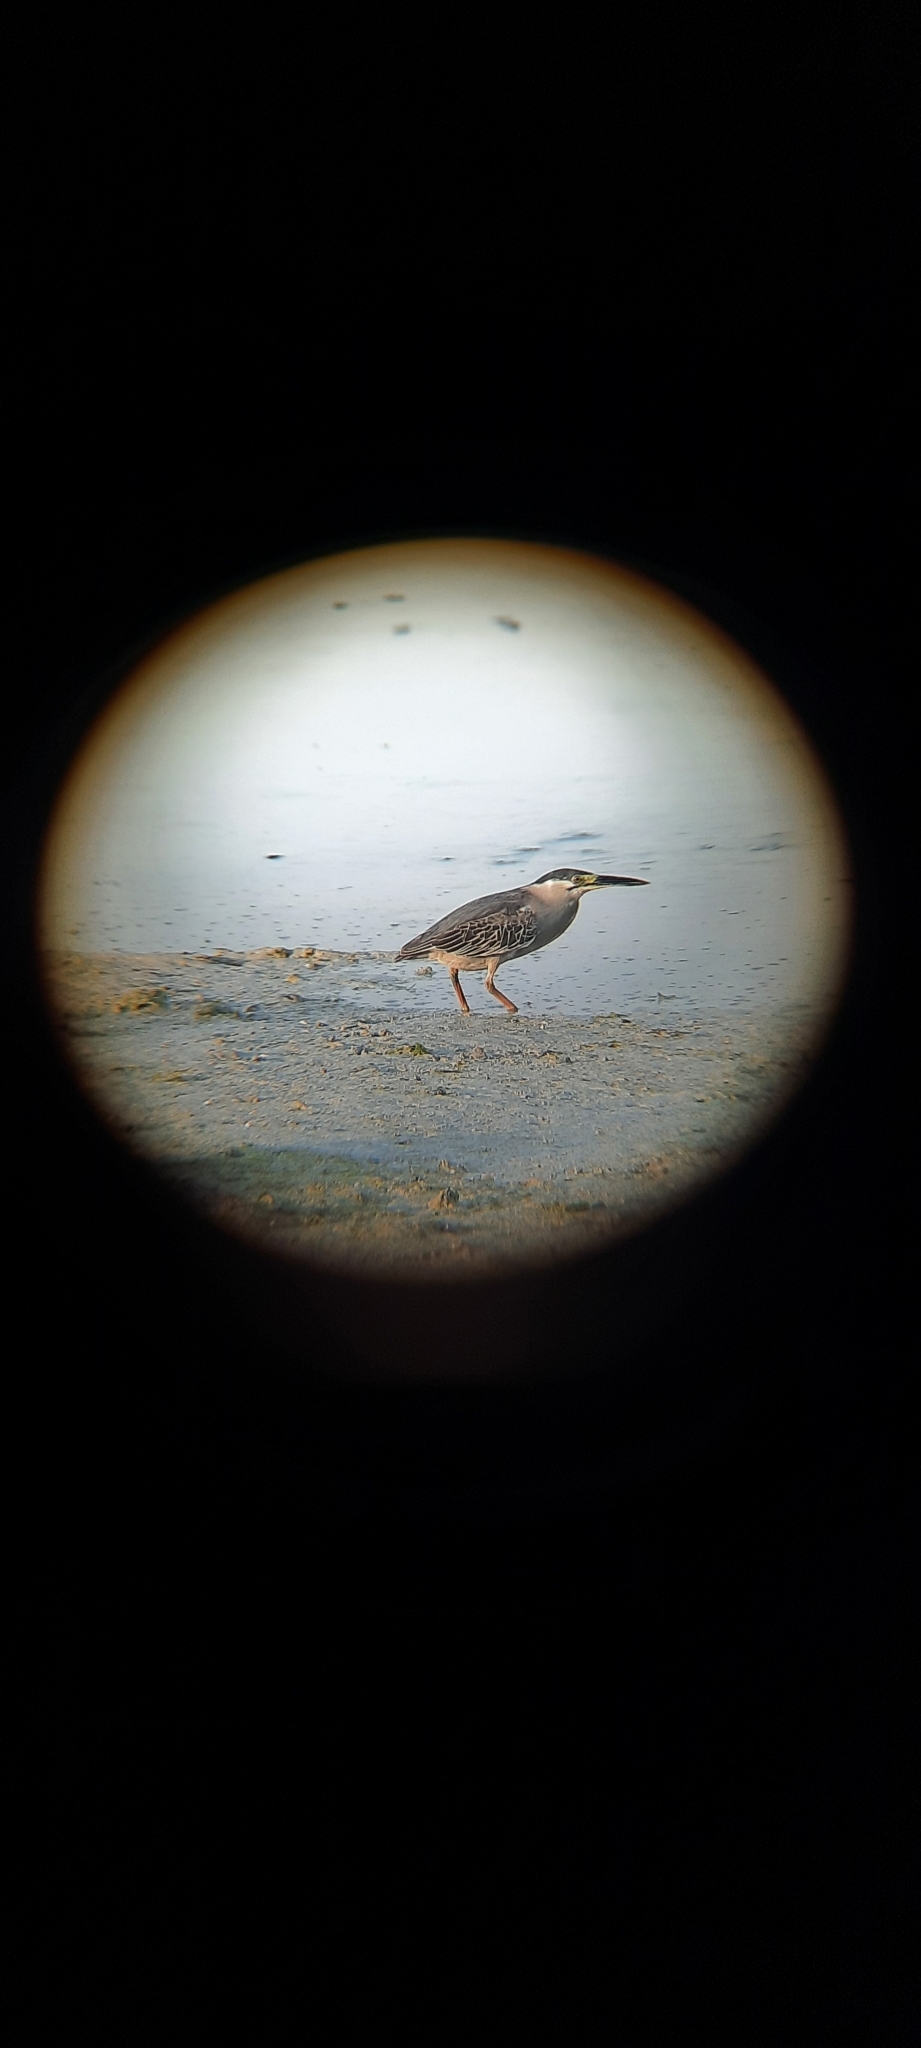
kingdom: Animalia
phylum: Chordata
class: Aves
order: Pelecaniformes
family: Ardeidae
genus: Butorides
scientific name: Butorides striata
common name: Striated heron
